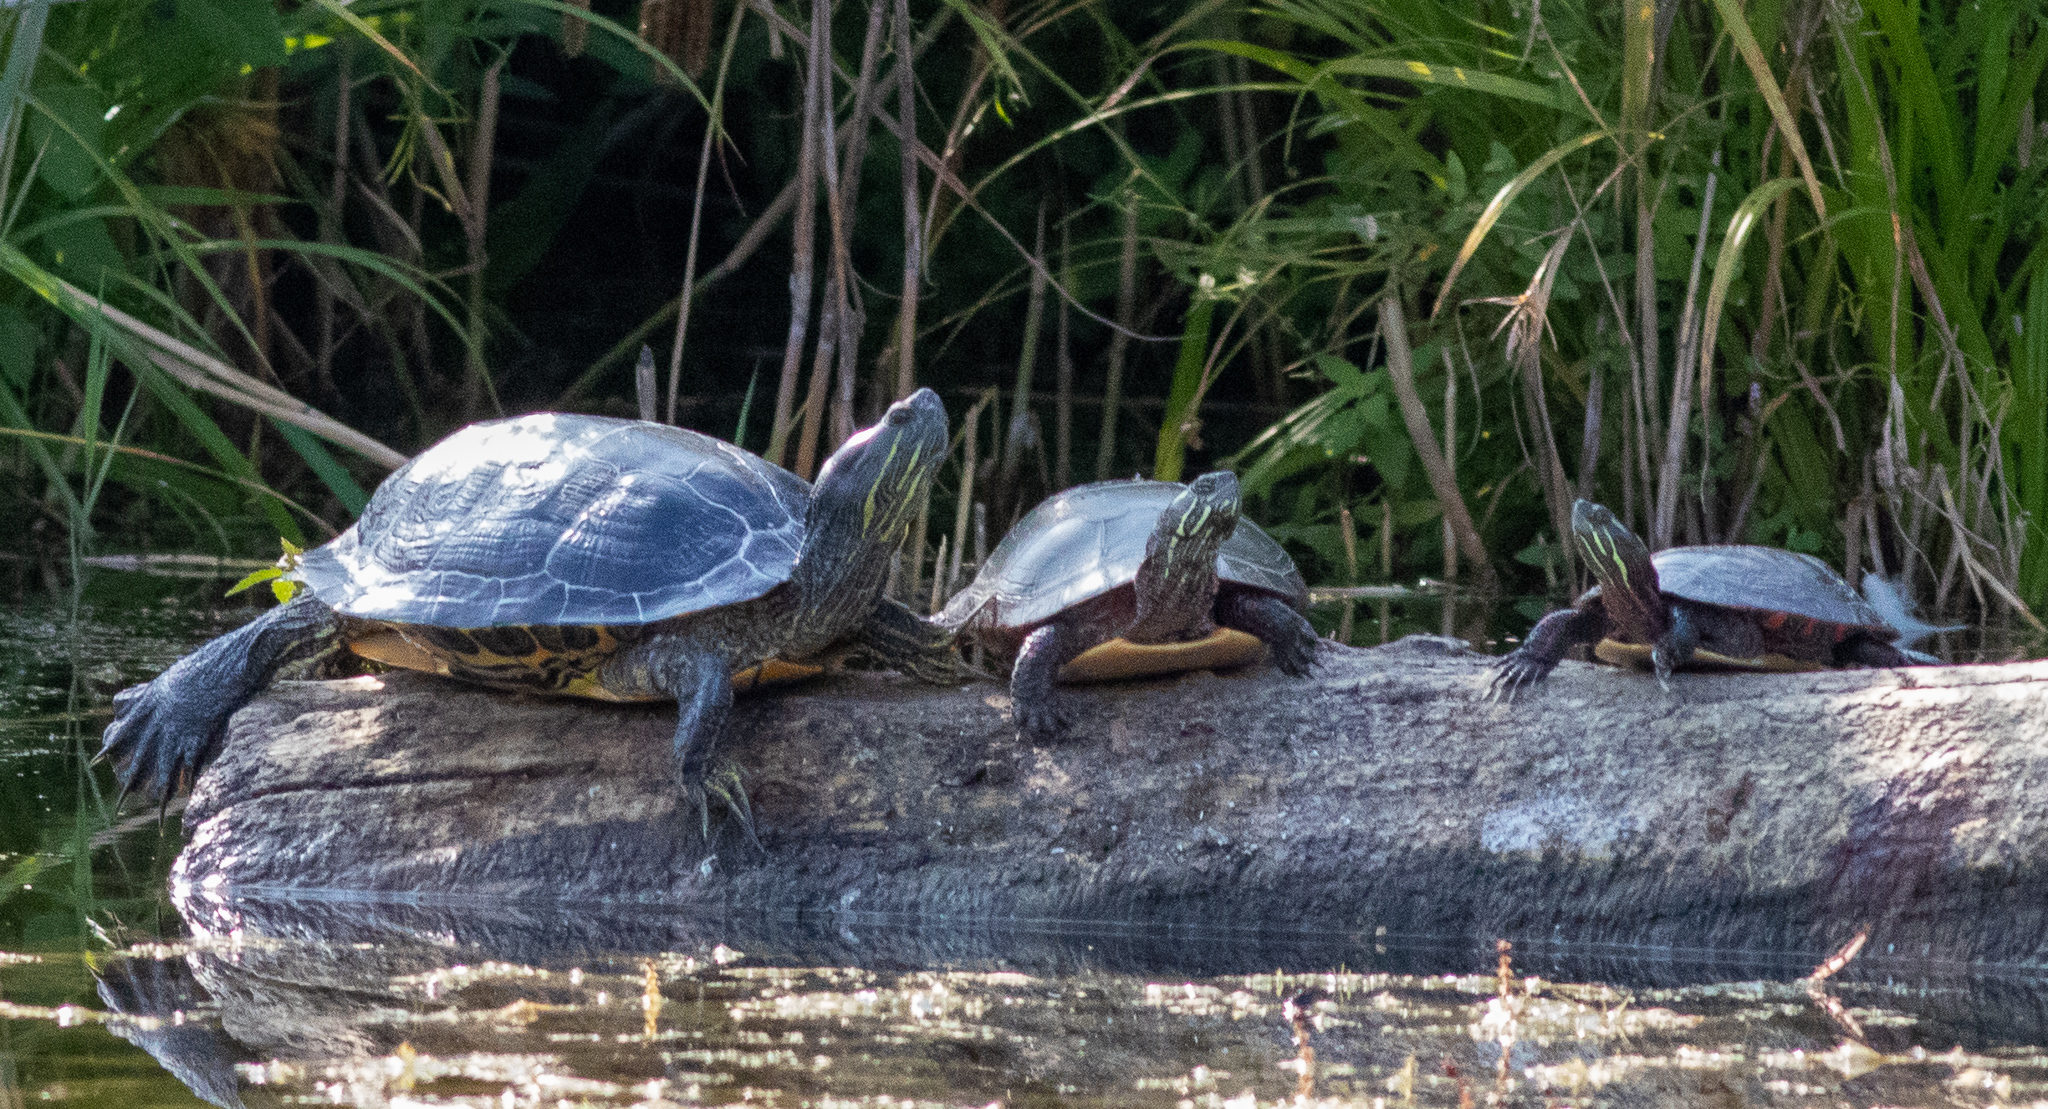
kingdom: Animalia
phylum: Chordata
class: Testudines
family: Emydidae
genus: Trachemys
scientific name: Trachemys scripta
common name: Slider
